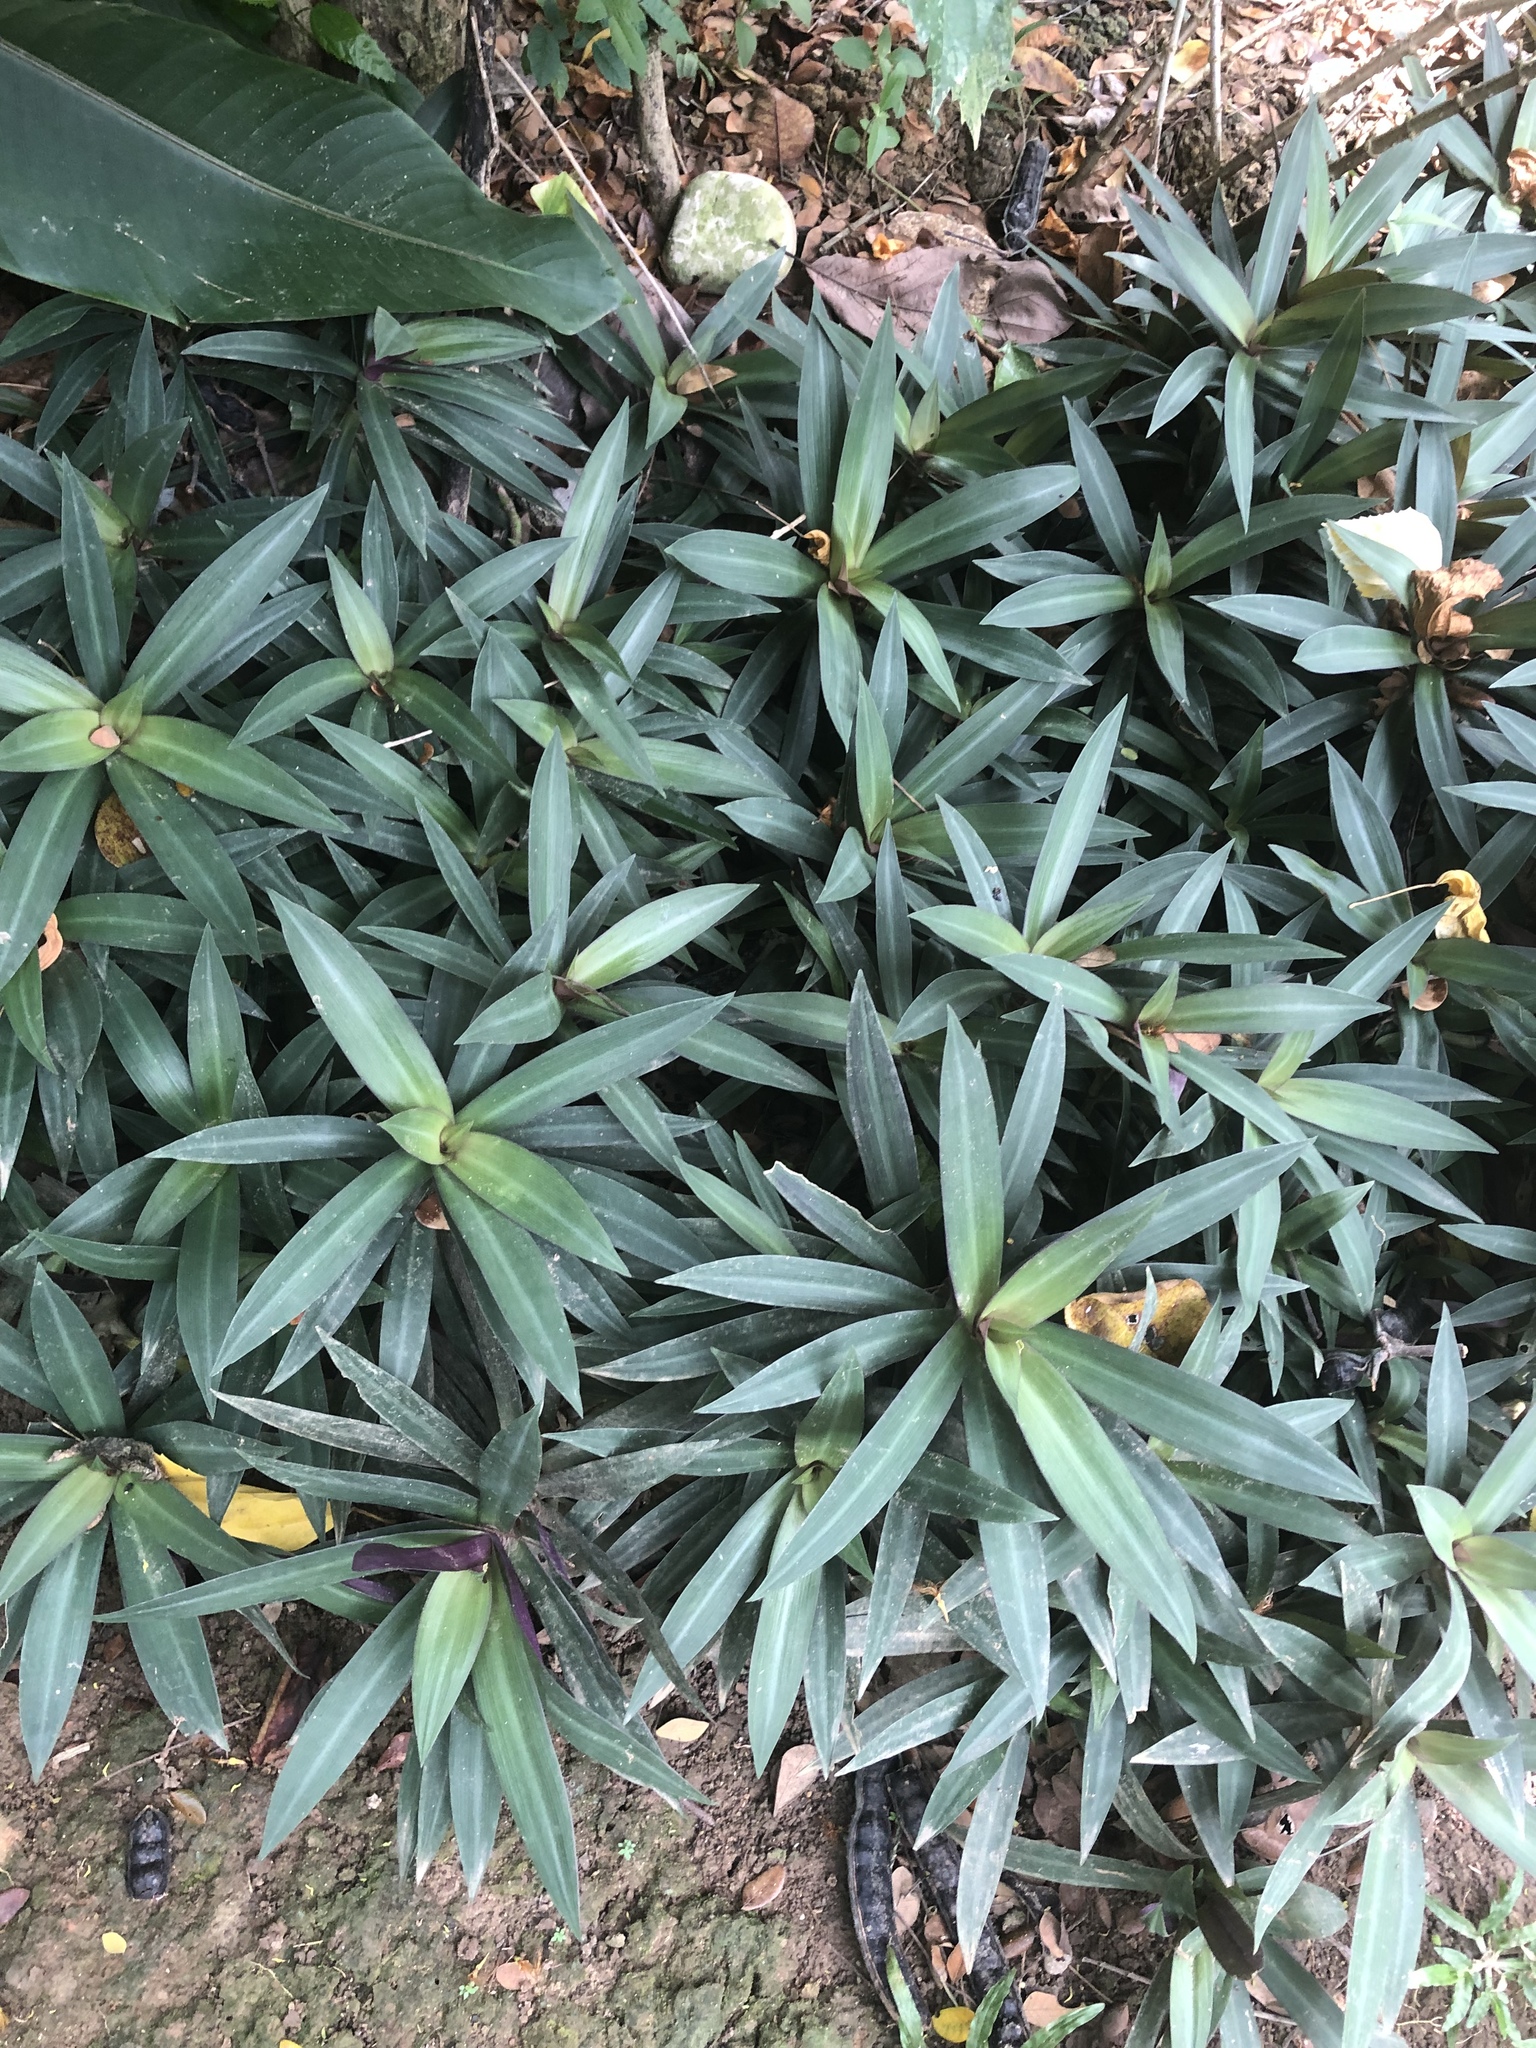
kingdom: Plantae
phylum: Tracheophyta
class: Liliopsida
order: Commelinales
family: Commelinaceae
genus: Tradescantia
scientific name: Tradescantia spathacea
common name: Boatlily
